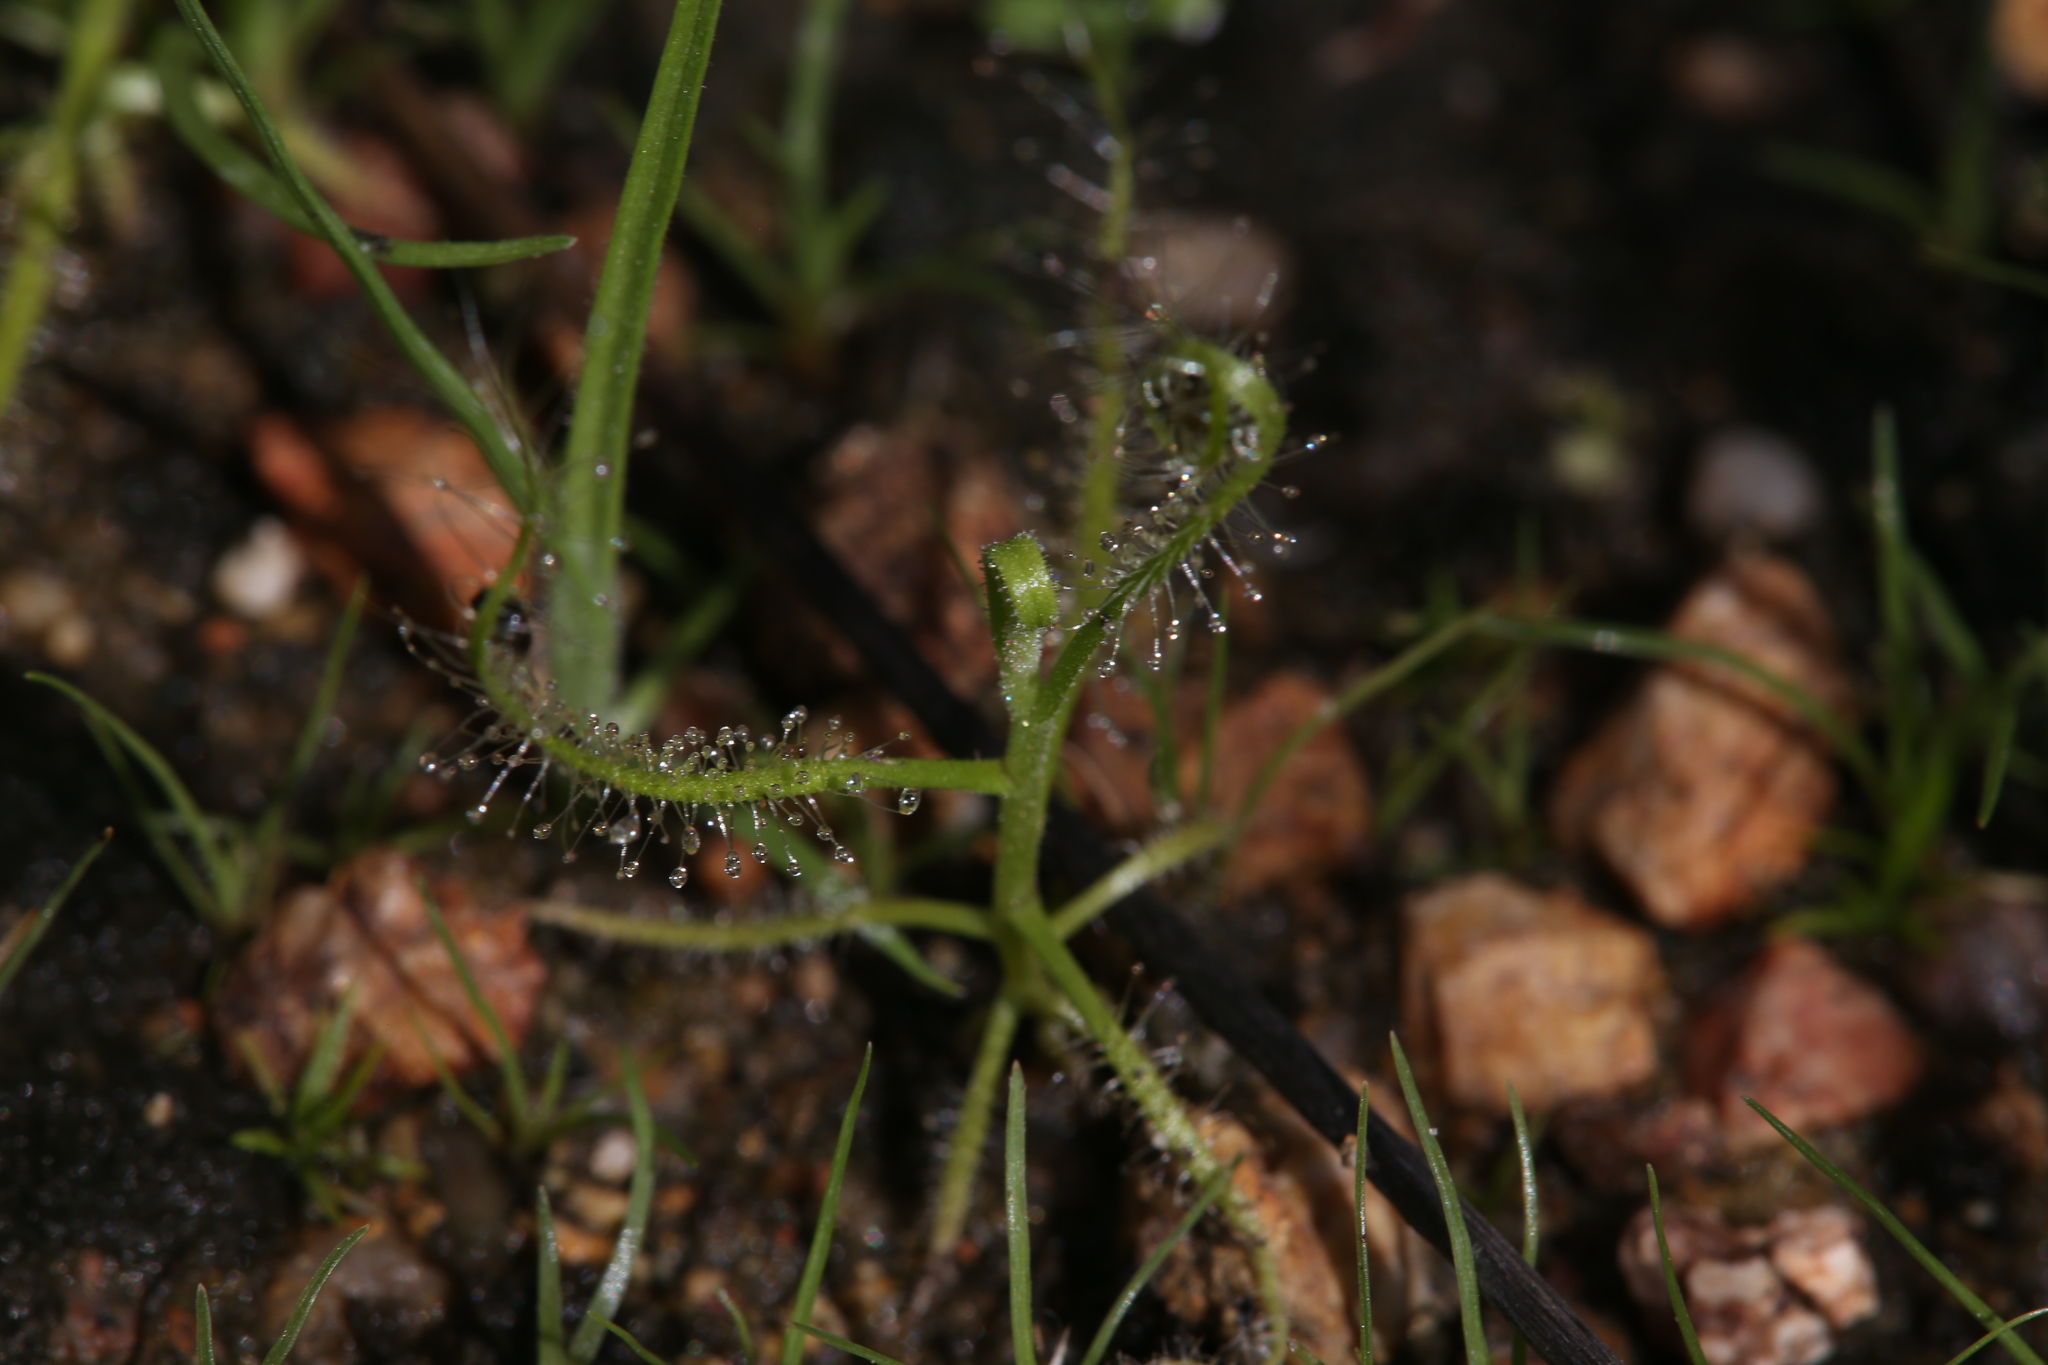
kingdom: Plantae
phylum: Tracheophyta
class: Magnoliopsida
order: Caryophyllales
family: Droseraceae
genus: Drosera
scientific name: Drosera indica
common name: Indian sundew
